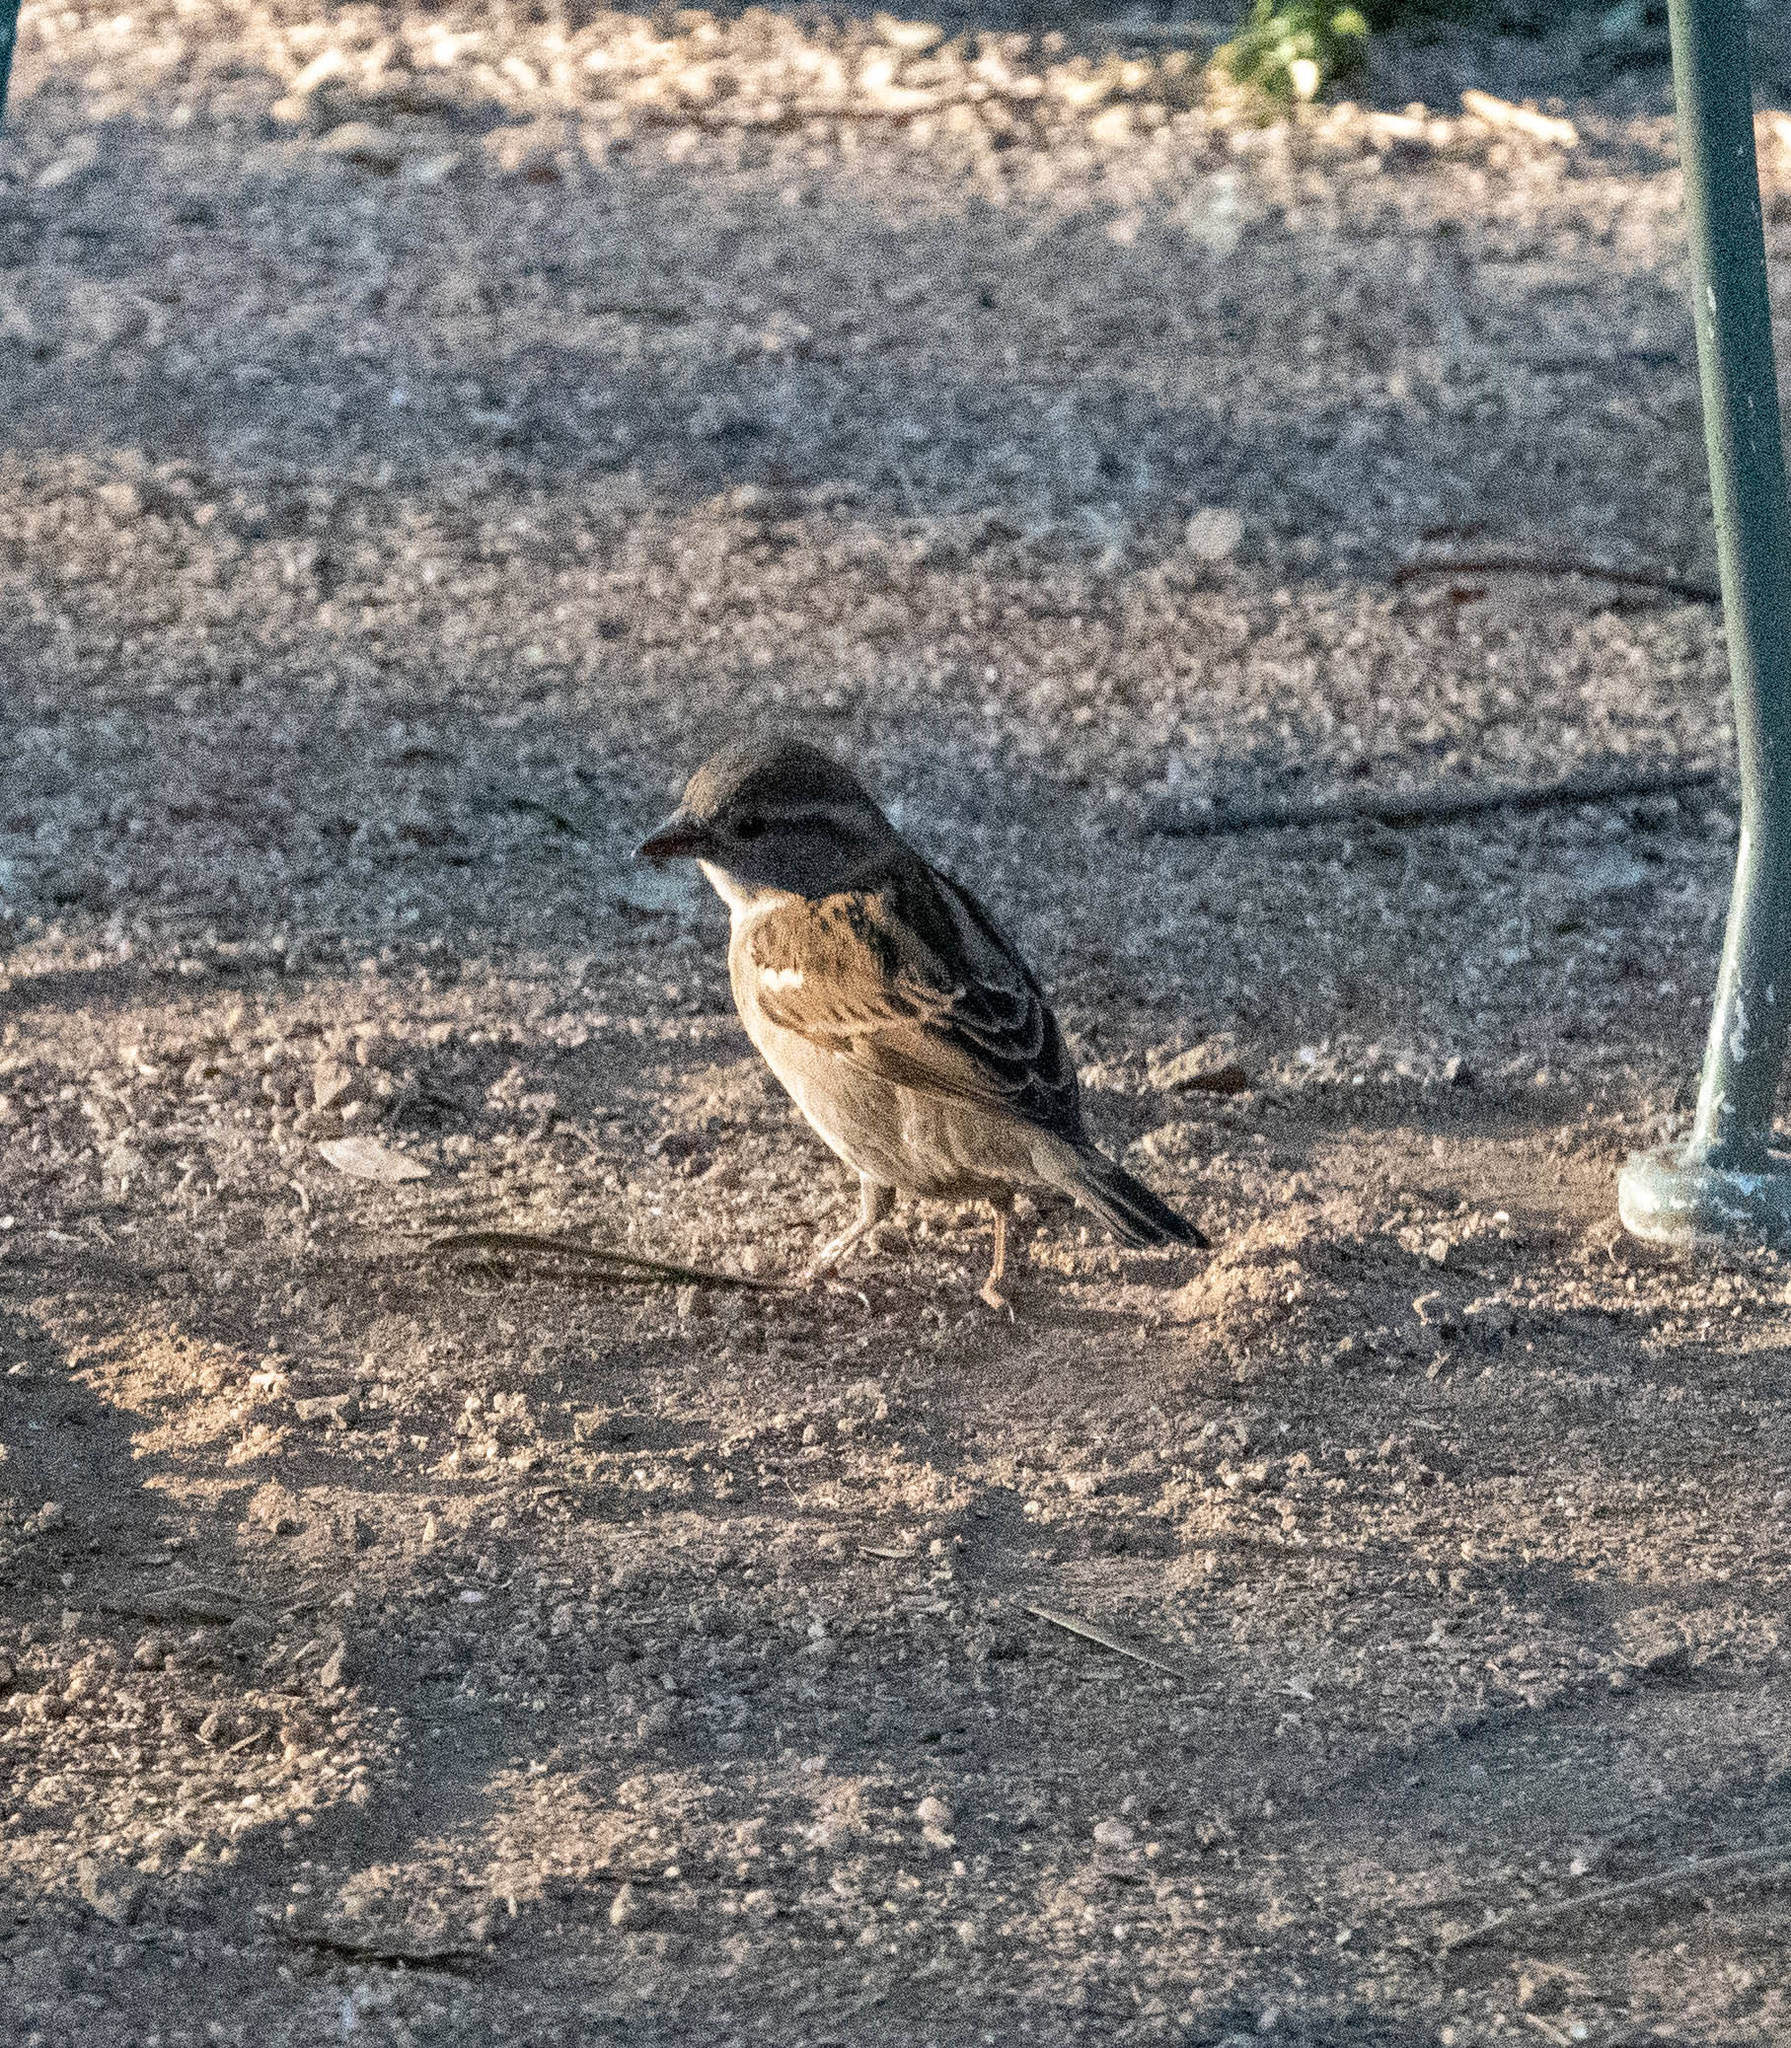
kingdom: Animalia
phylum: Chordata
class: Aves
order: Passeriformes
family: Passeridae
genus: Passer
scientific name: Passer domesticus
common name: House sparrow
